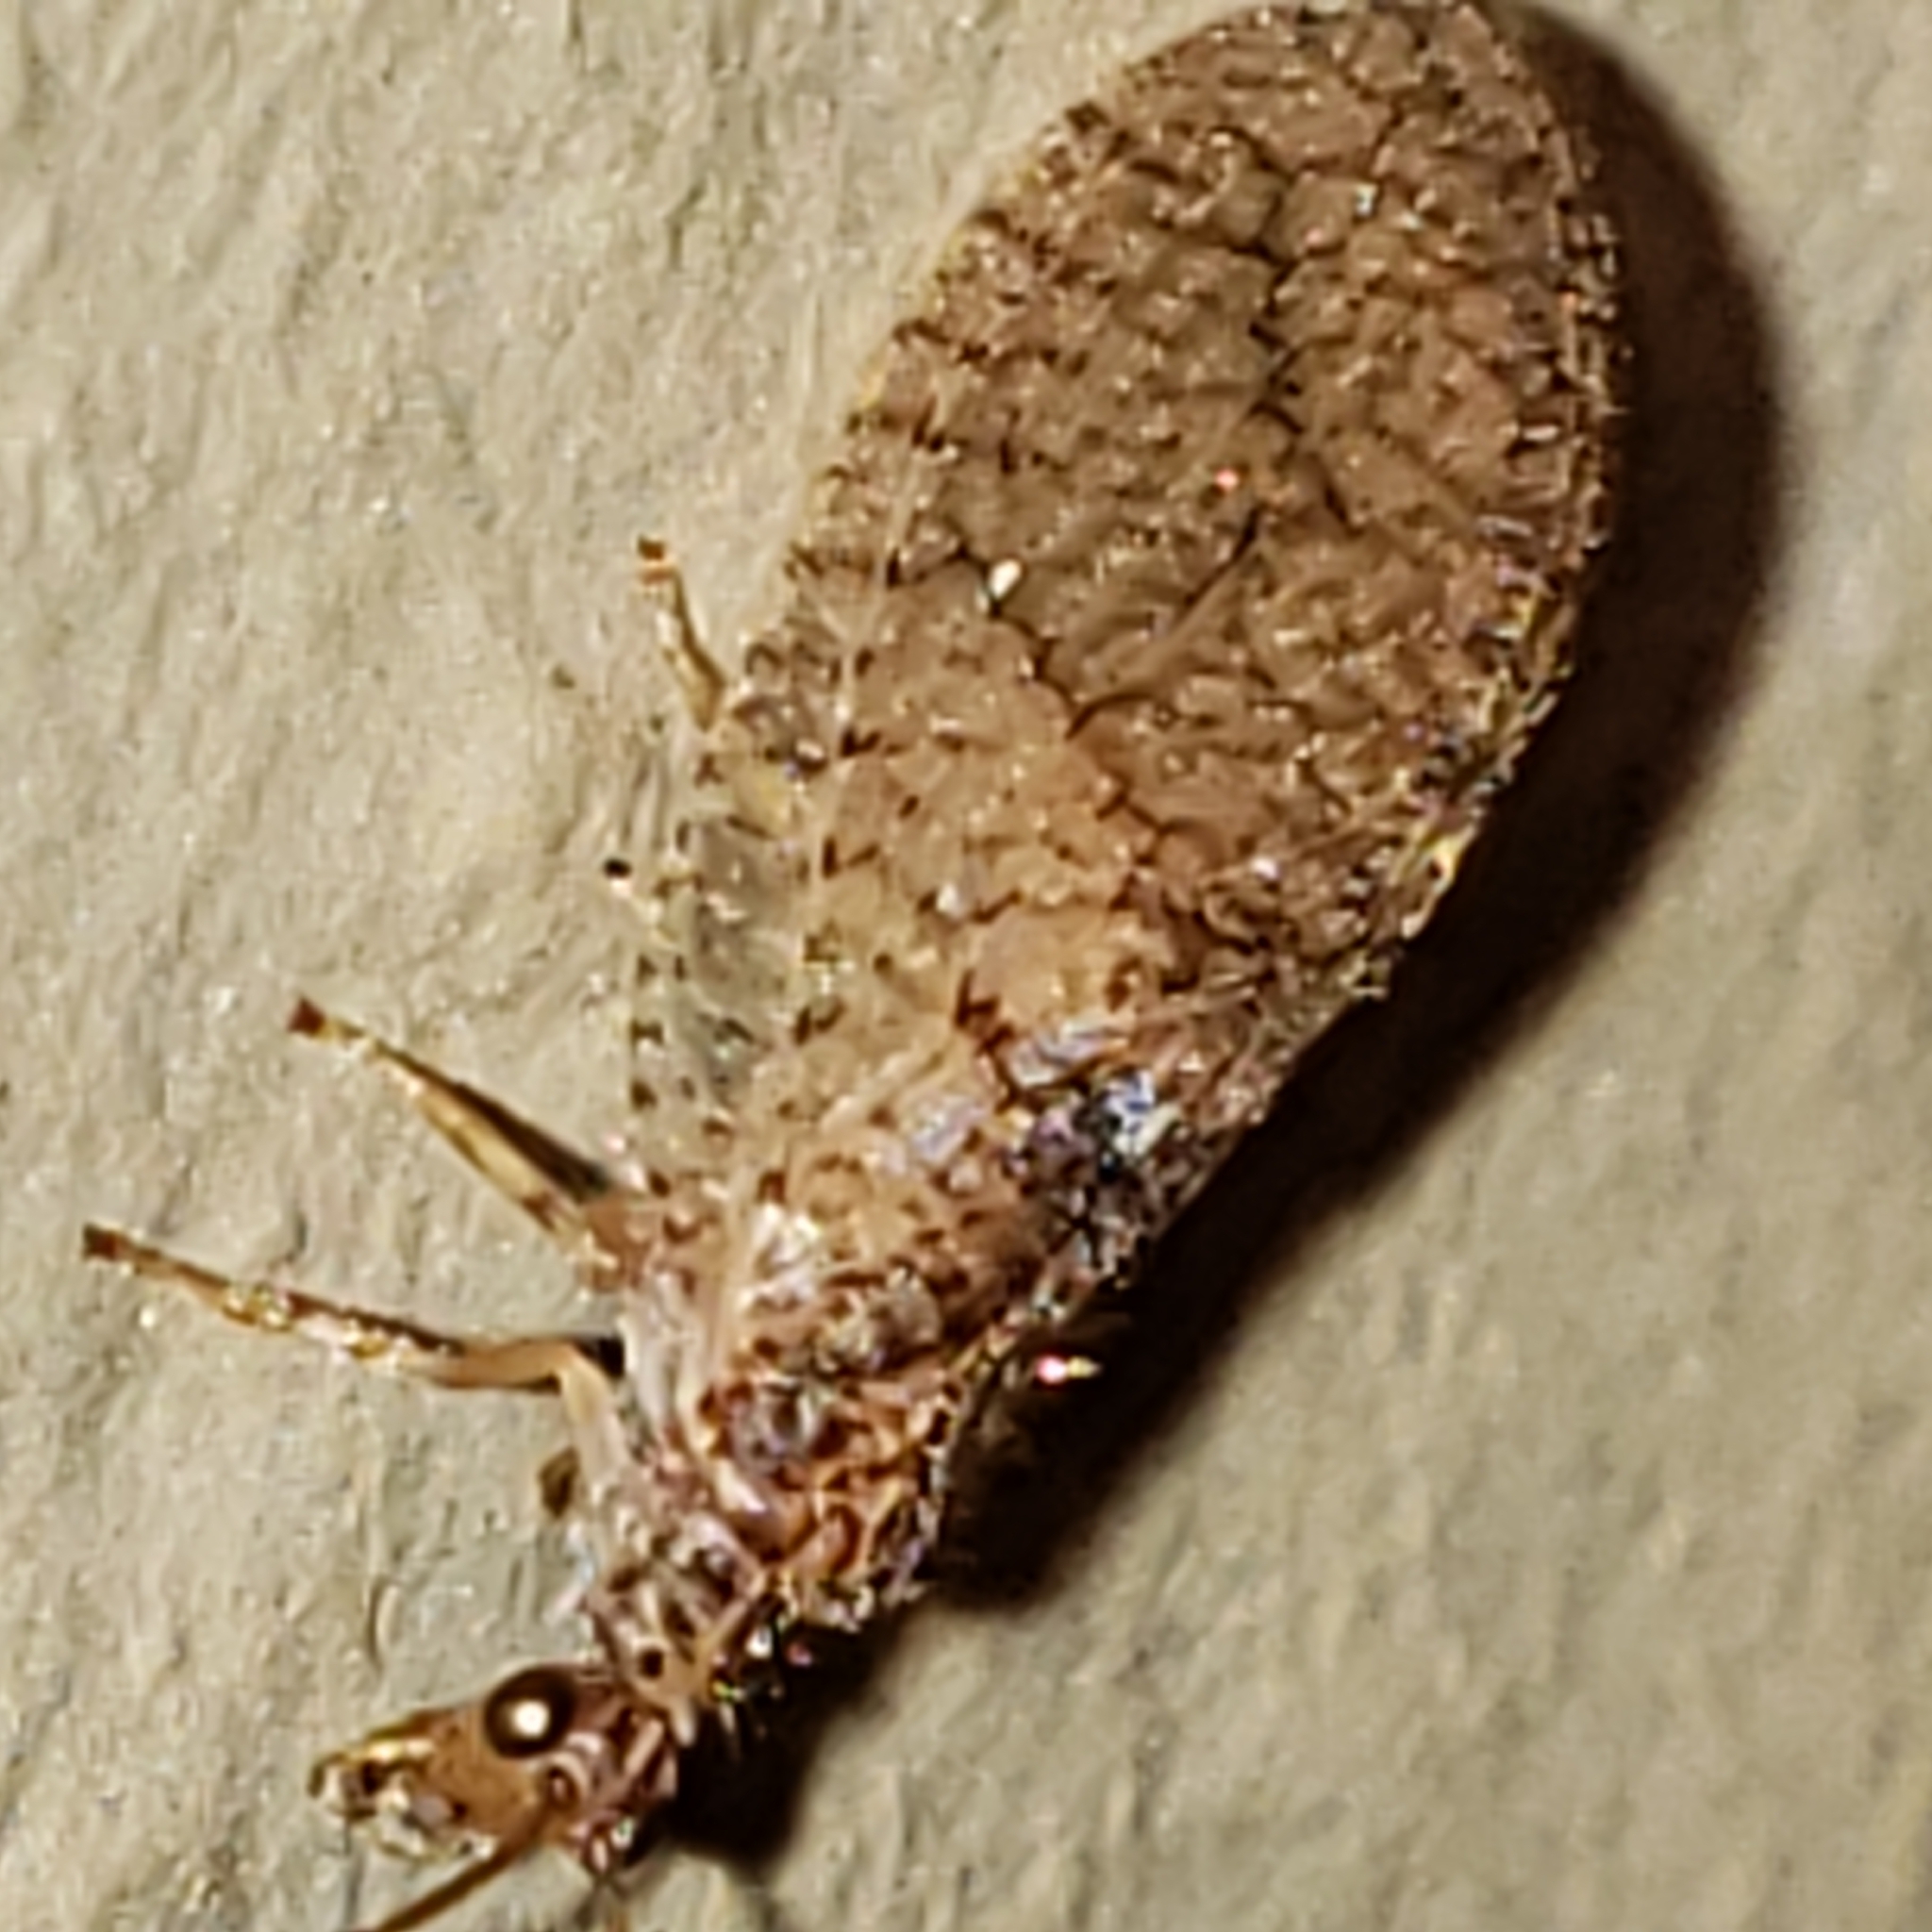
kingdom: Animalia
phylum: Arthropoda
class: Insecta
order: Neuroptera
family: Hemerobiidae
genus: Micromus
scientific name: Micromus posticus
